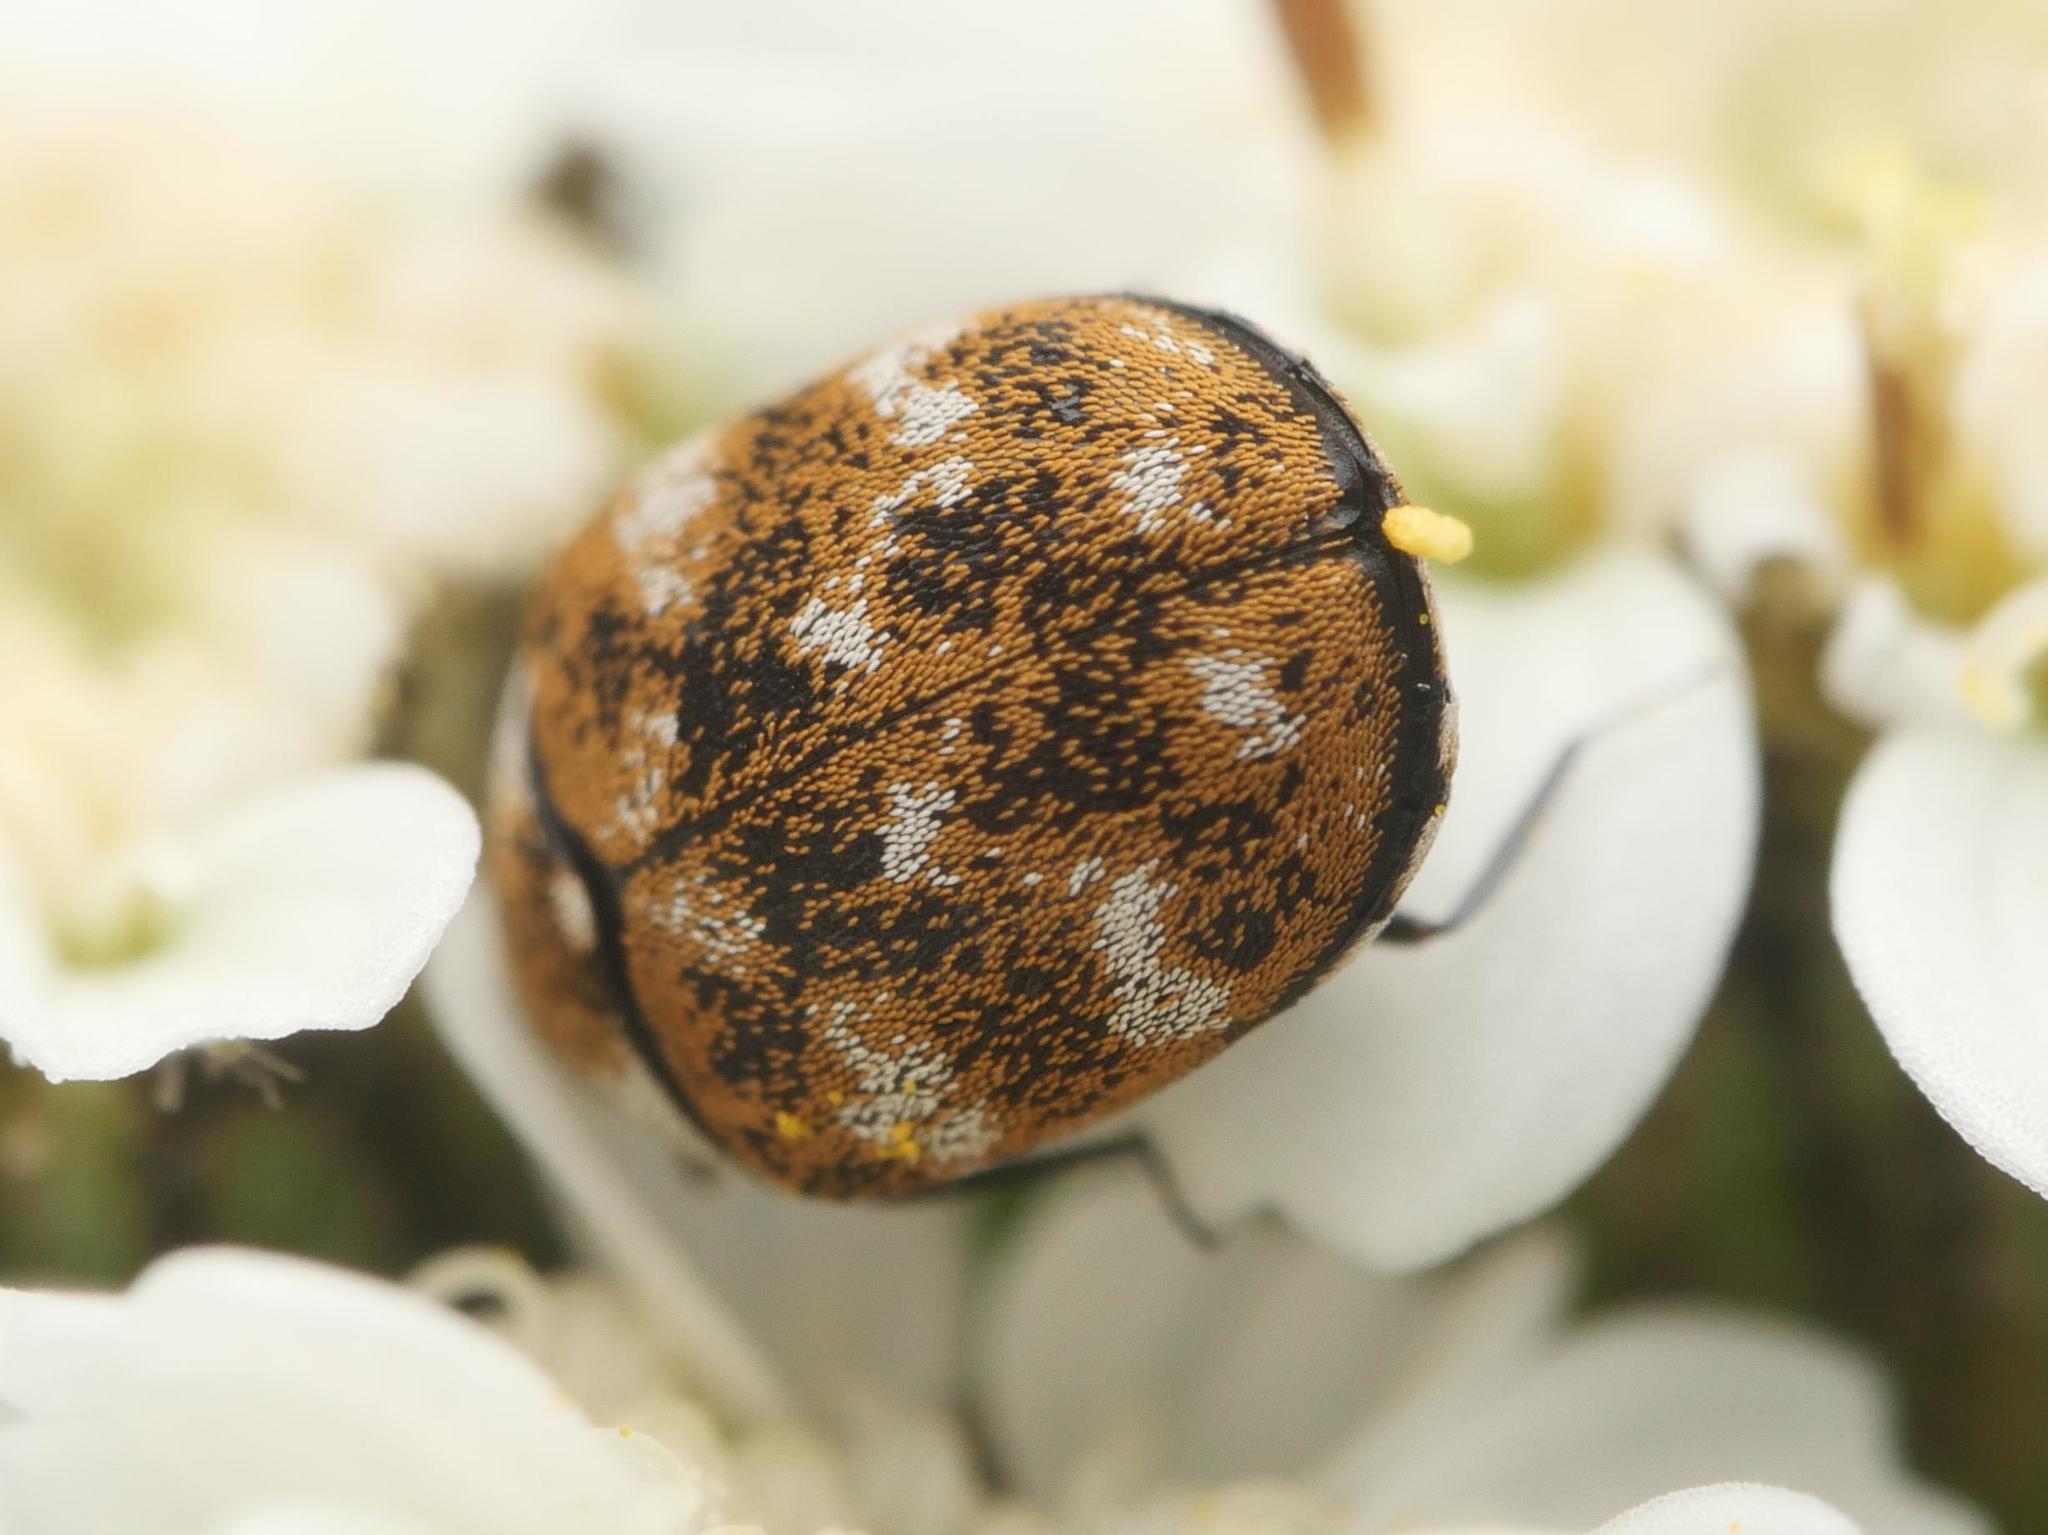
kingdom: Animalia
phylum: Arthropoda
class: Insecta
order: Coleoptera
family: Dermestidae
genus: Anthrenus
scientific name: Anthrenus verbasci
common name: Varied carpet beetle
